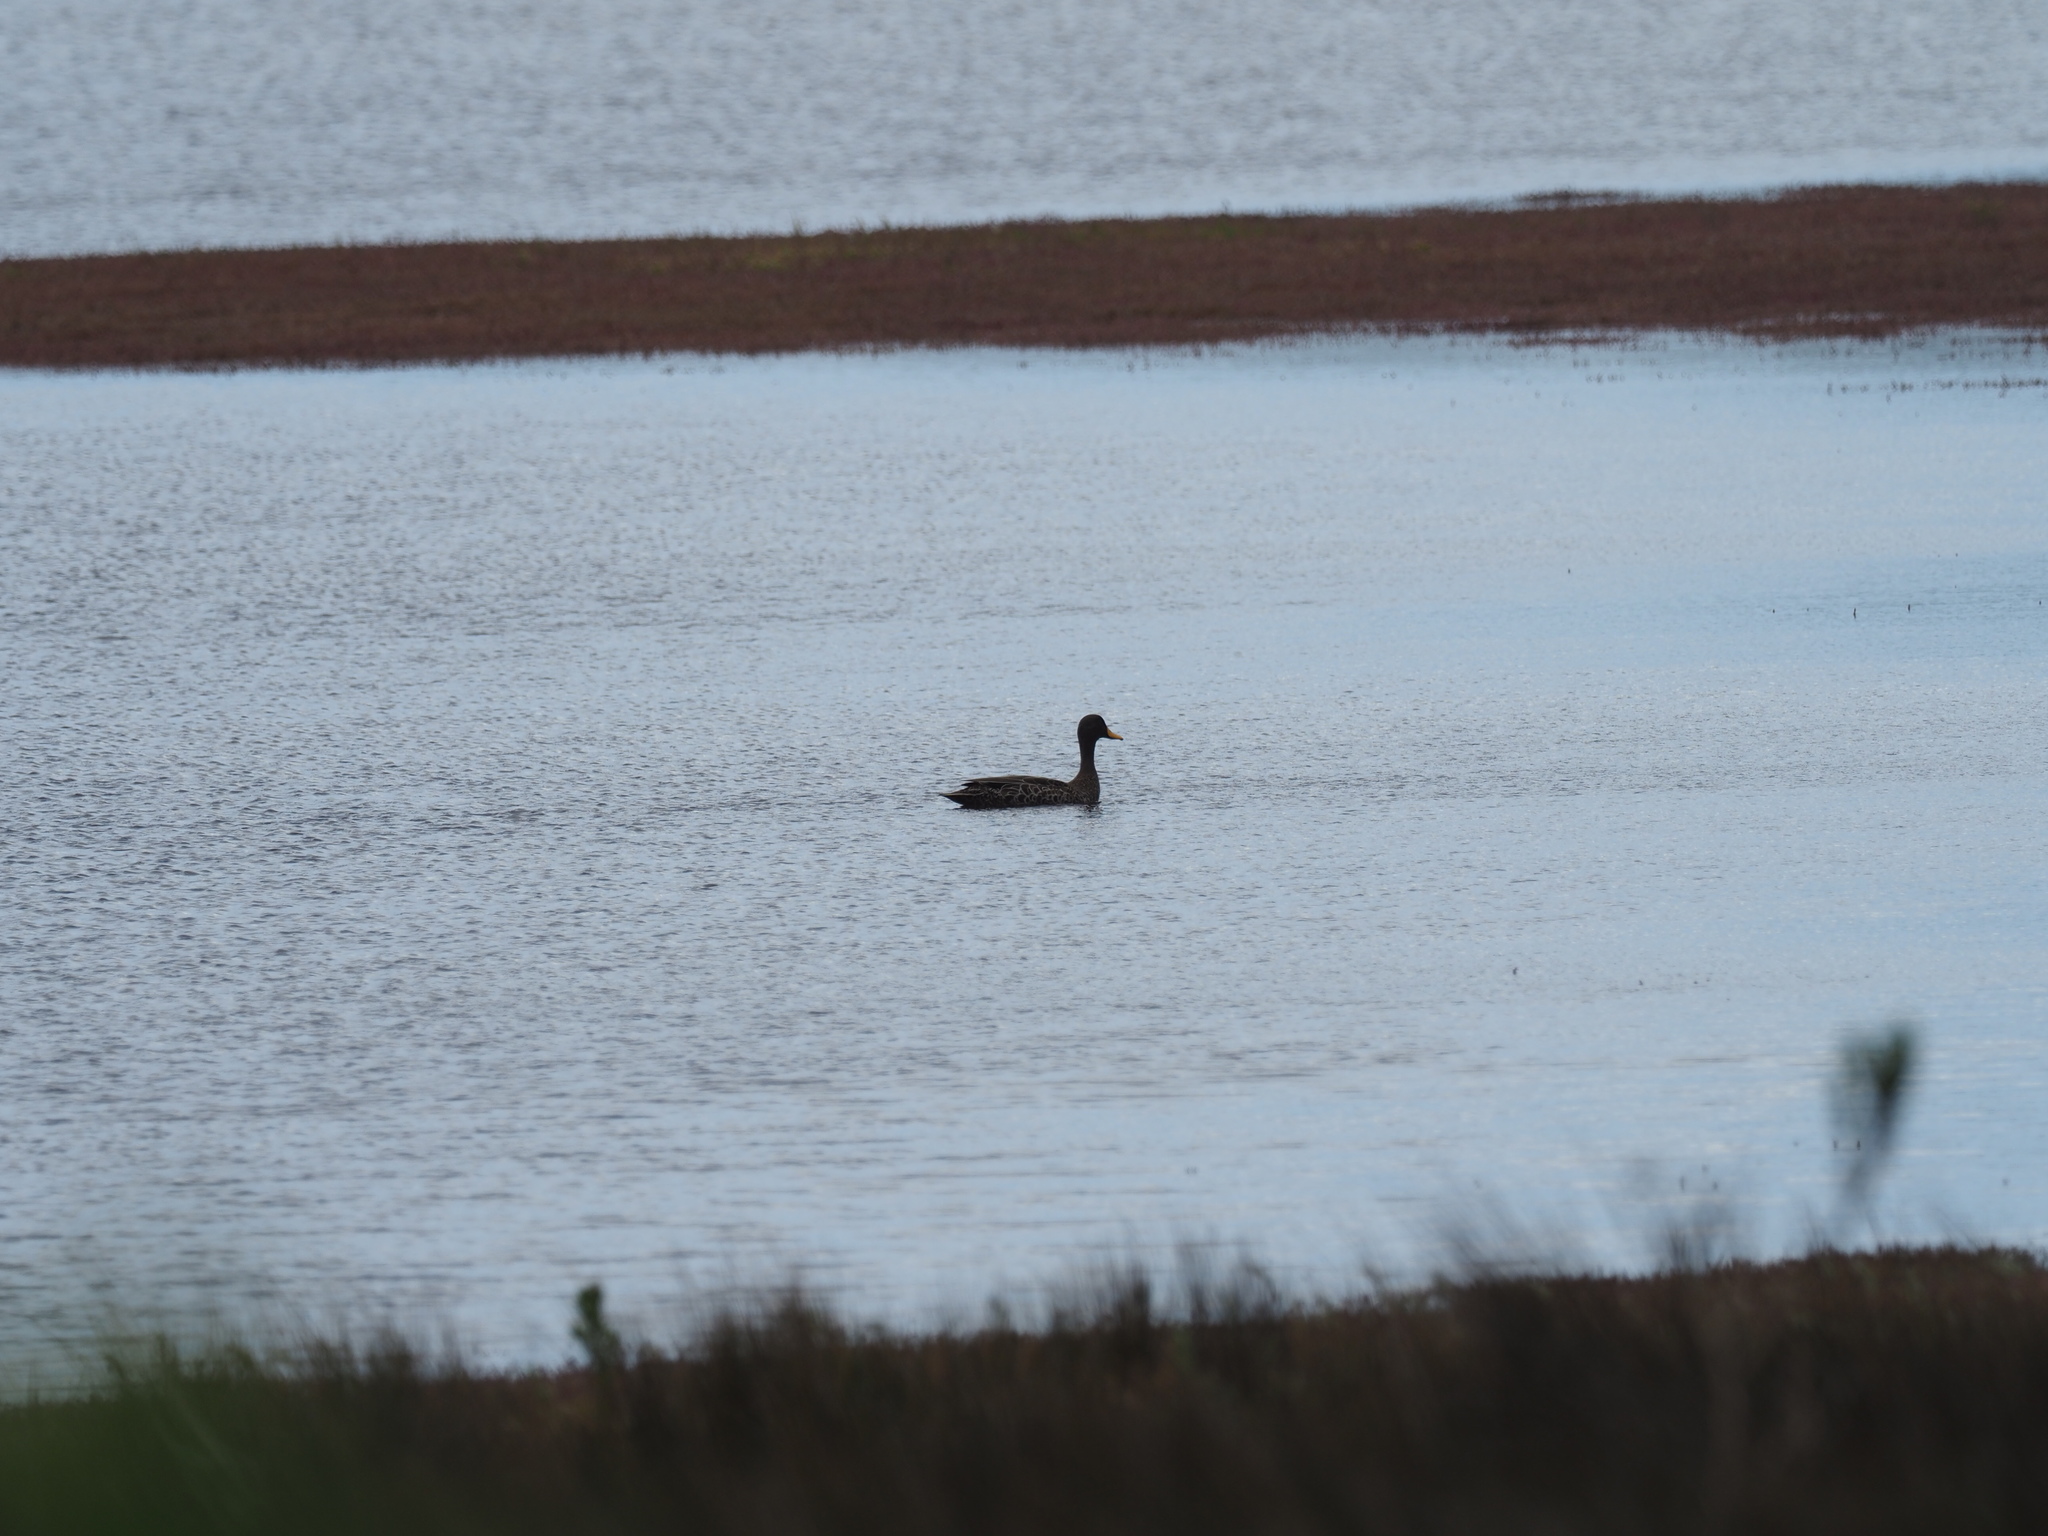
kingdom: Animalia
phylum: Chordata
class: Aves
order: Anseriformes
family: Anatidae
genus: Anas
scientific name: Anas undulata
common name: Yellow-billed duck
